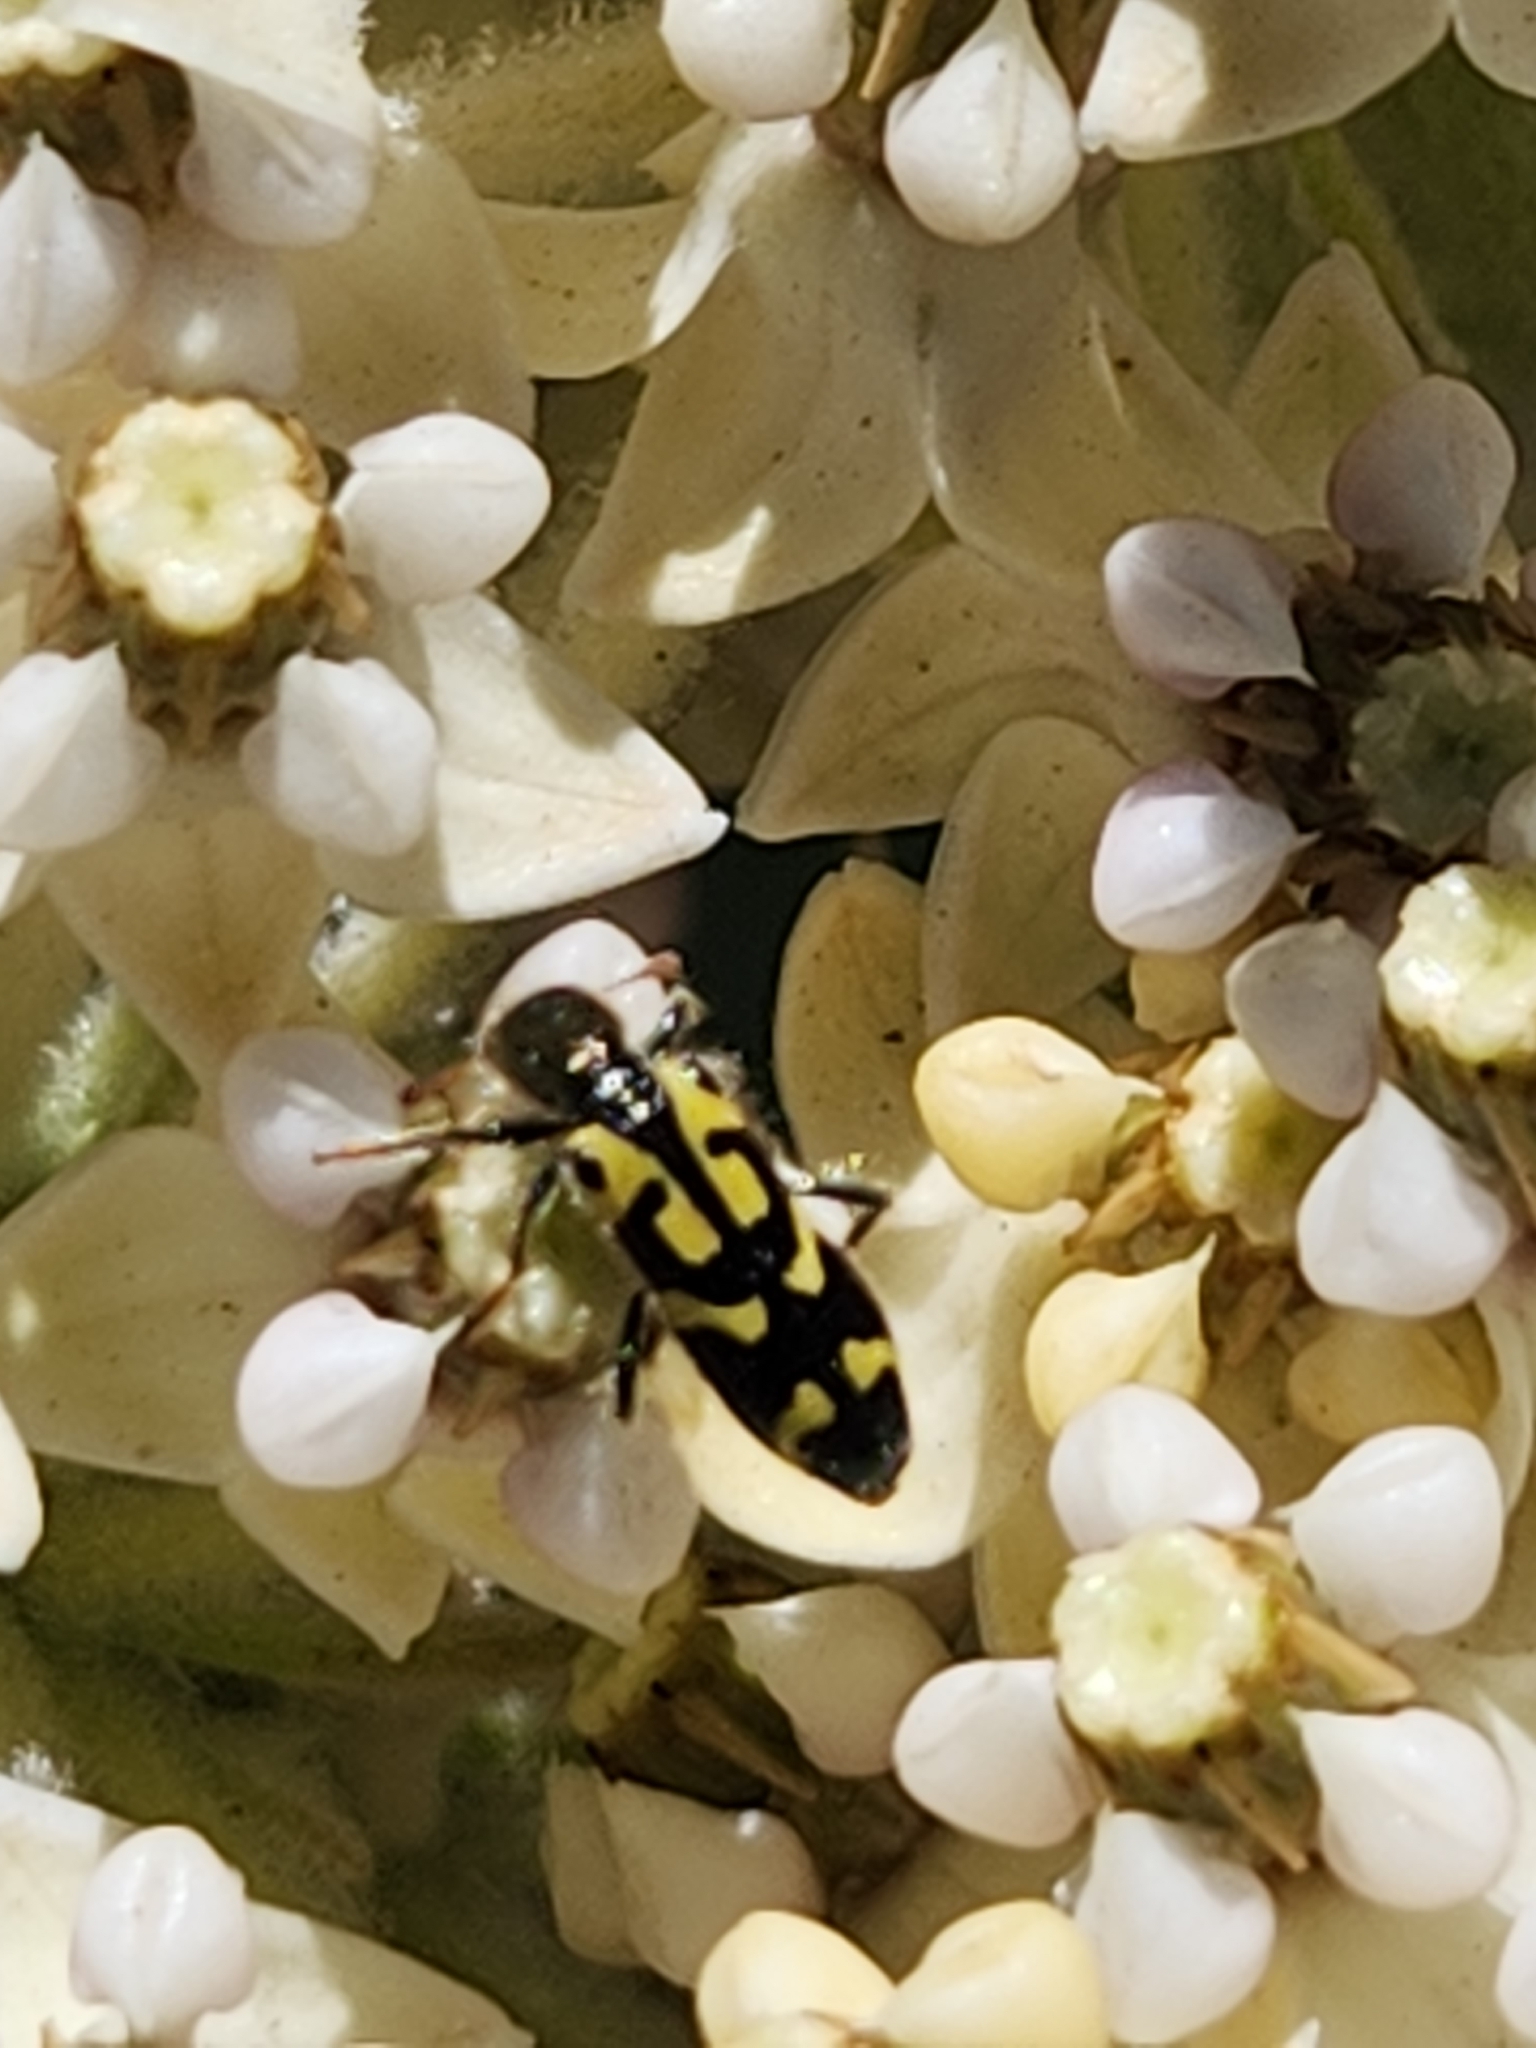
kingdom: Animalia
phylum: Arthropoda
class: Insecta
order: Coleoptera
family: Cleridae
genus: Trichodes
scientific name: Trichodes ornatus
